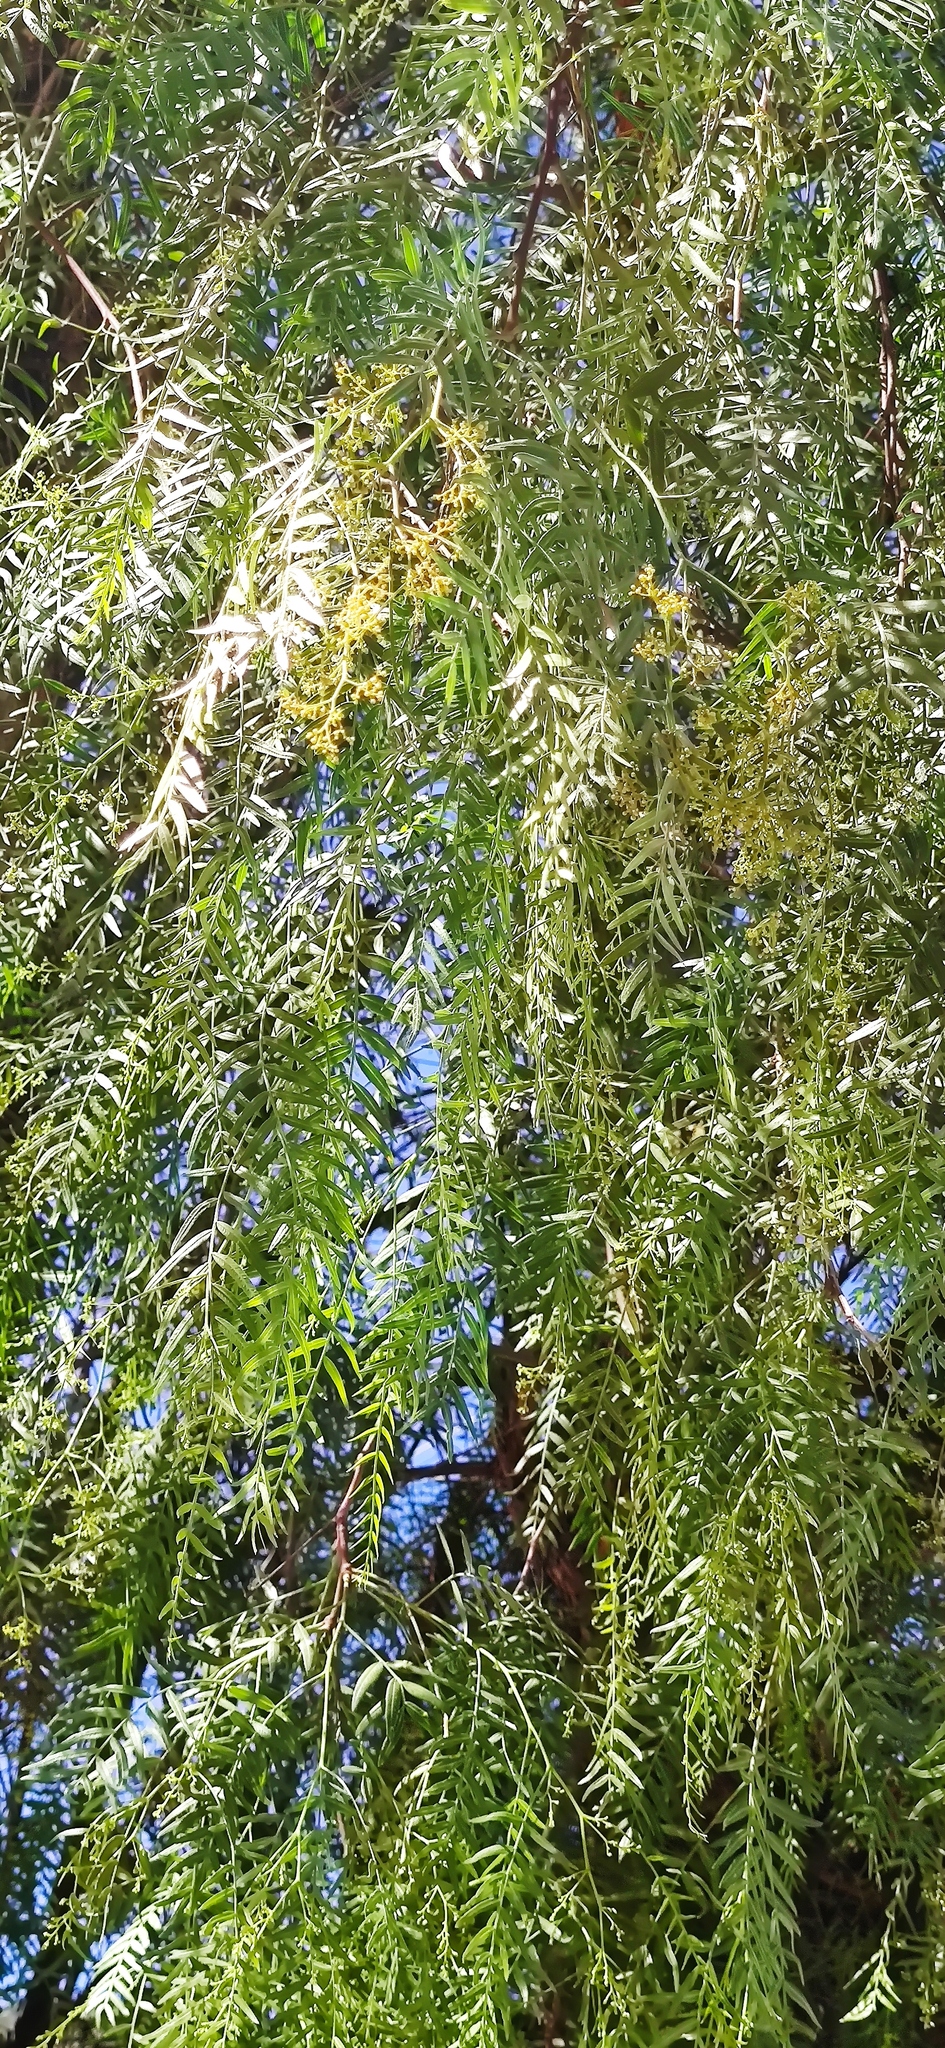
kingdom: Plantae
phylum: Tracheophyta
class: Magnoliopsida
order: Sapindales
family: Anacardiaceae
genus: Schinus
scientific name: Schinus molle
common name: Peruvian peppertree
